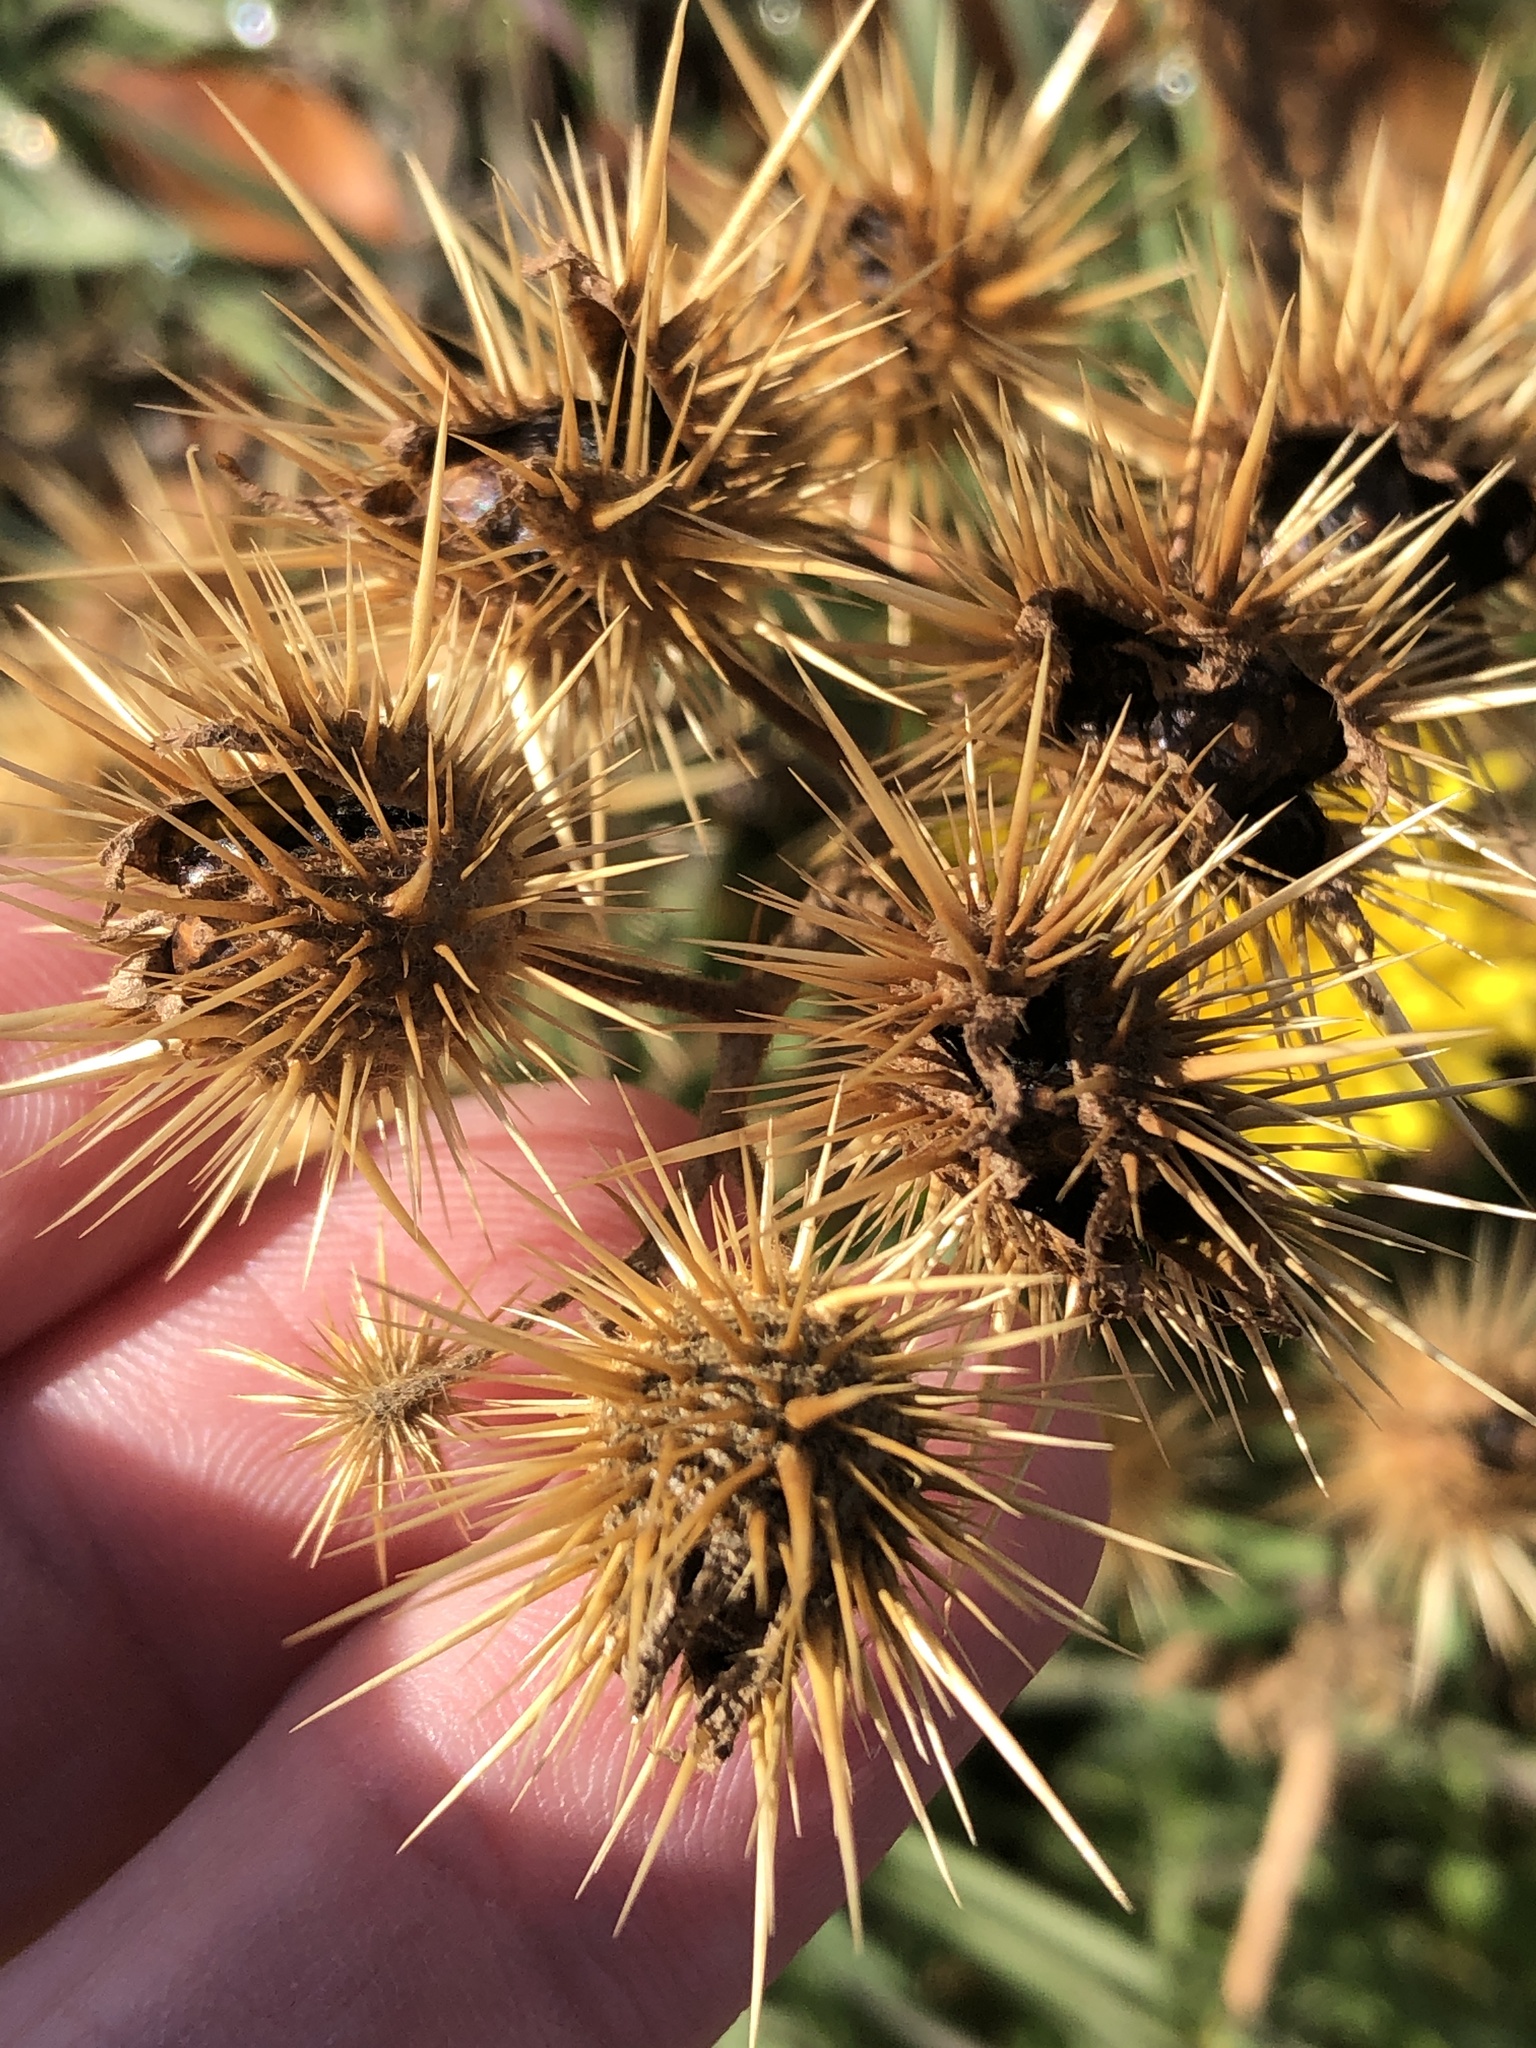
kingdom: Plantae
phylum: Tracheophyta
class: Magnoliopsida
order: Solanales
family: Solanaceae
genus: Solanum
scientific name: Solanum angustifolium
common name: Buffalobur nightshade
